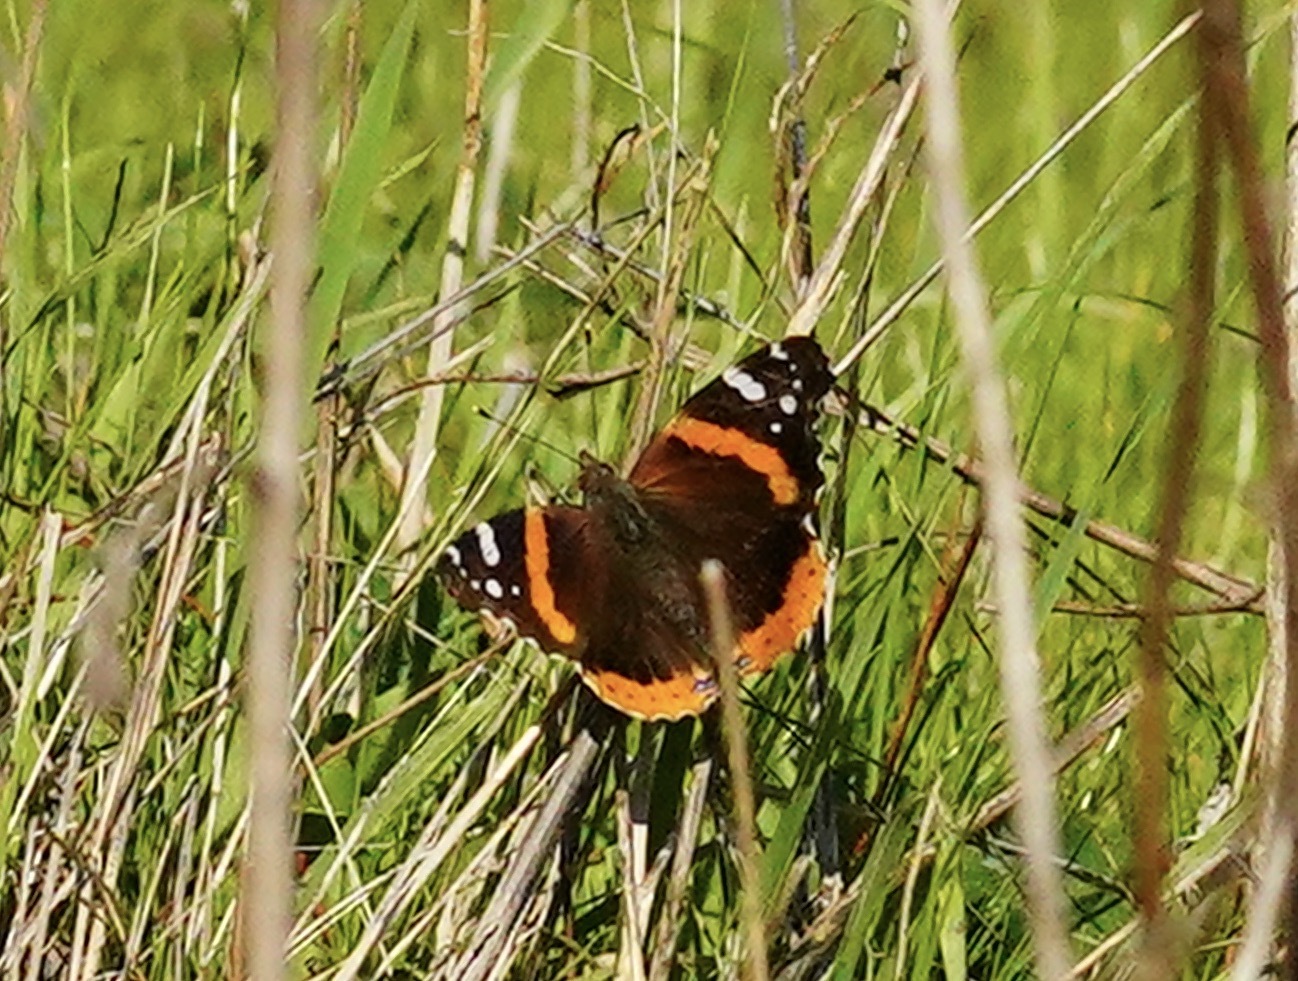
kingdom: Animalia
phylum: Arthropoda
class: Insecta
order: Lepidoptera
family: Nymphalidae
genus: Vanessa
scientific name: Vanessa atalanta
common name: Red admiral
